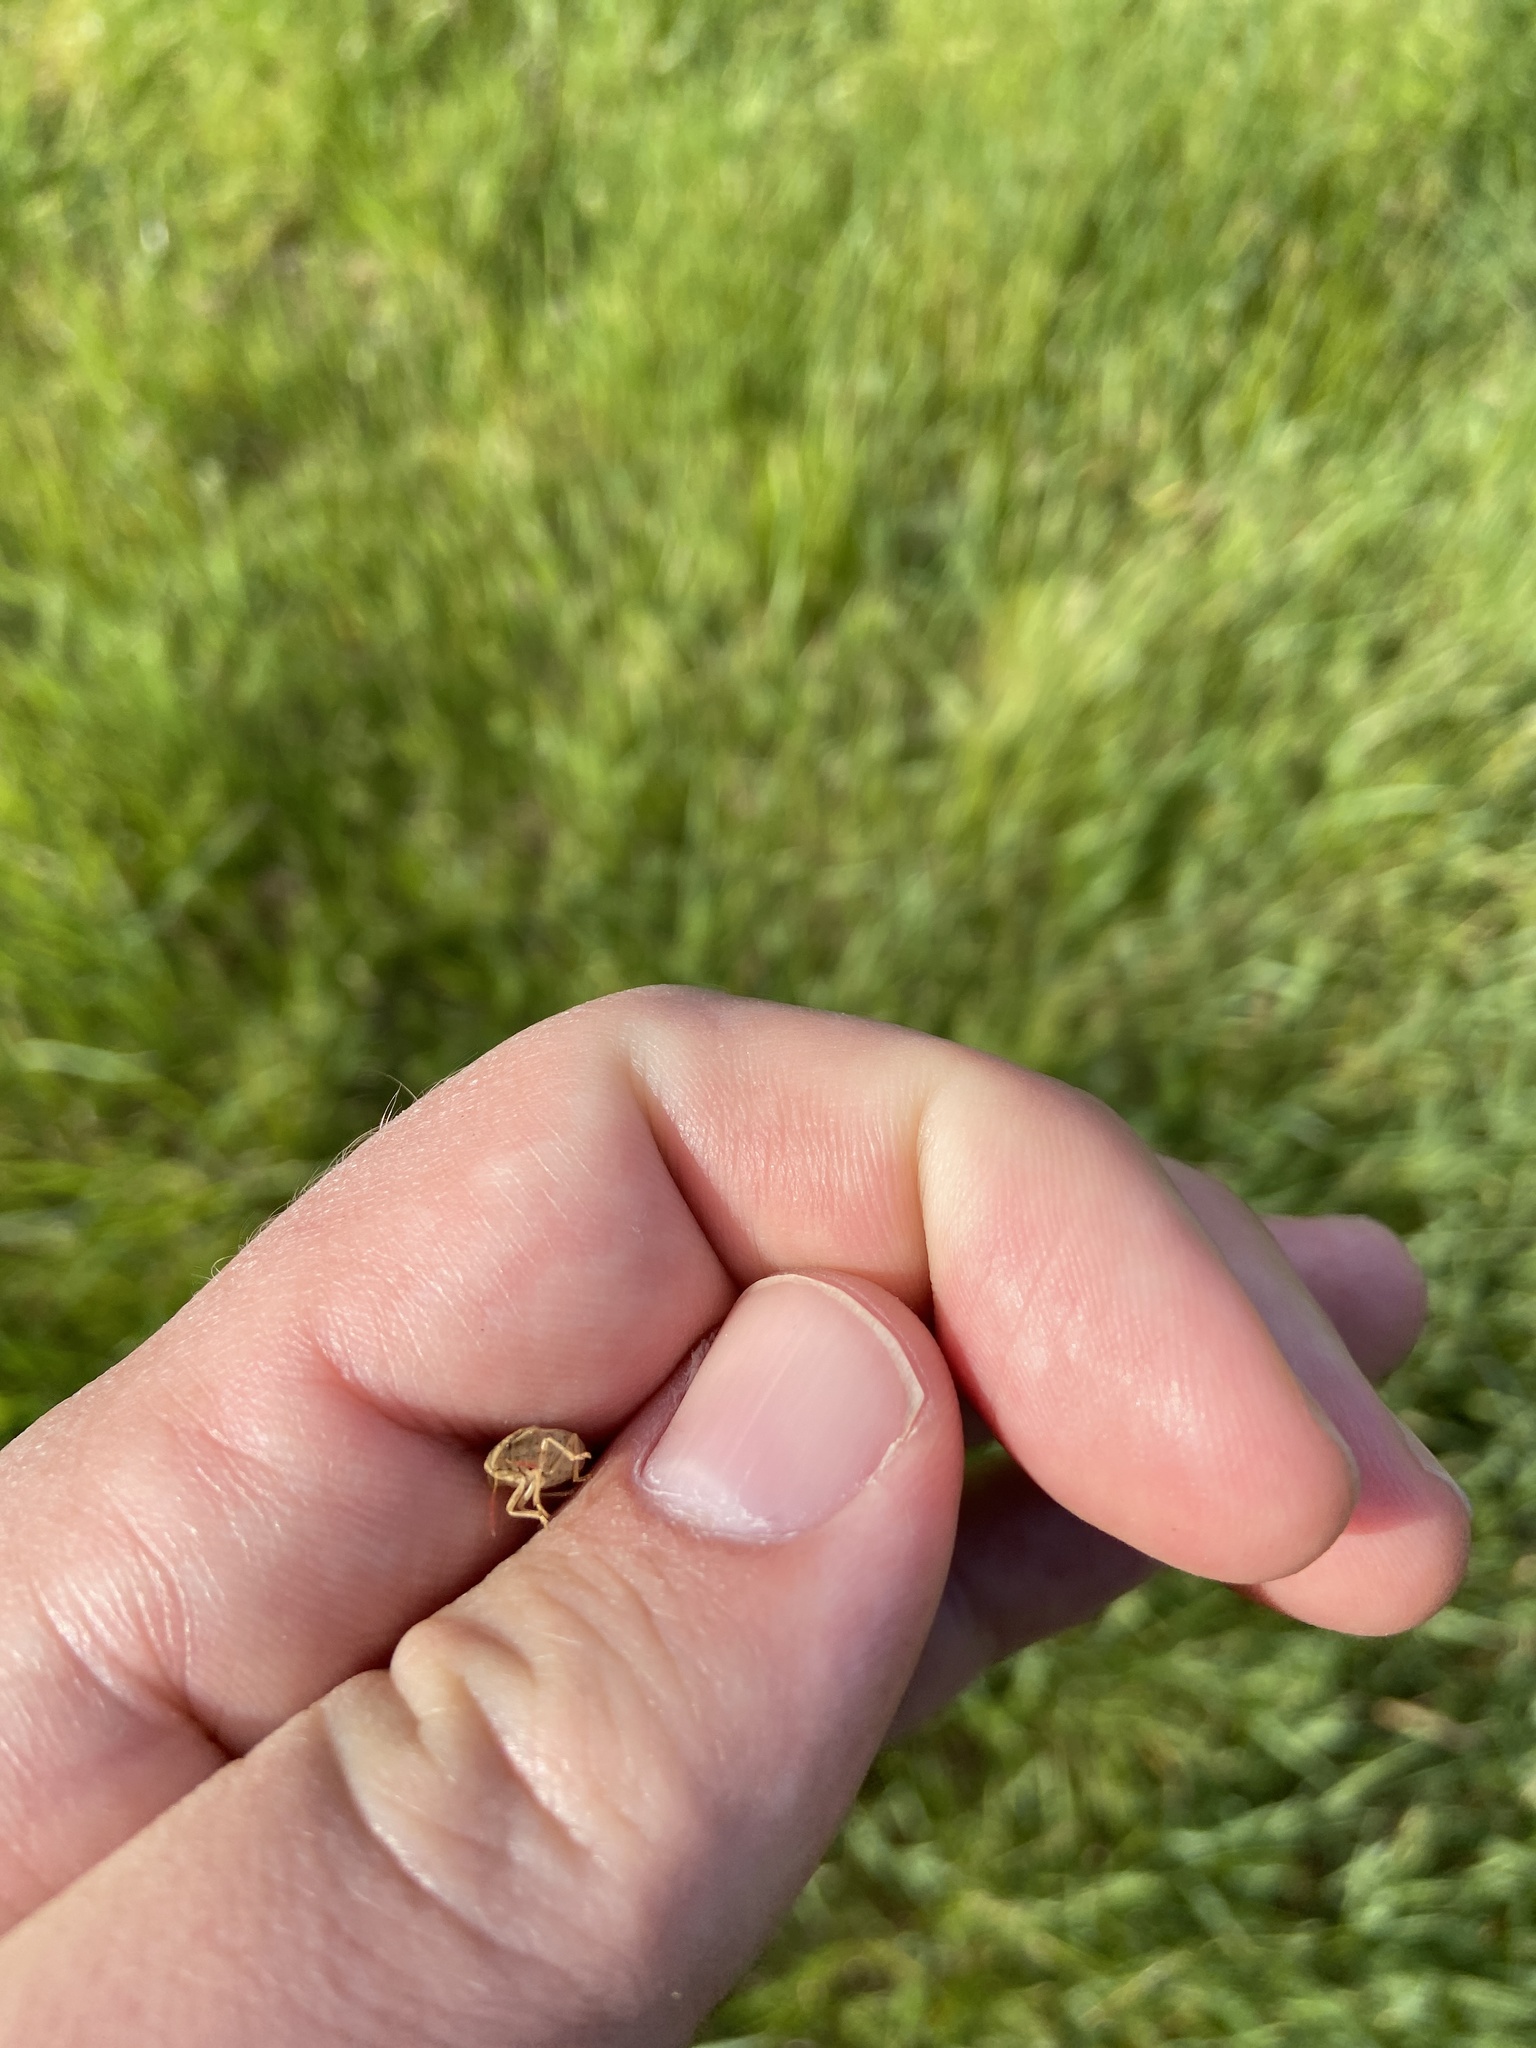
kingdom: Animalia
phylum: Arthropoda
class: Insecta
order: Hemiptera
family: Pentatomidae
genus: Aelia
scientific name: Aelia acuminata
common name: Bishop's mitre
